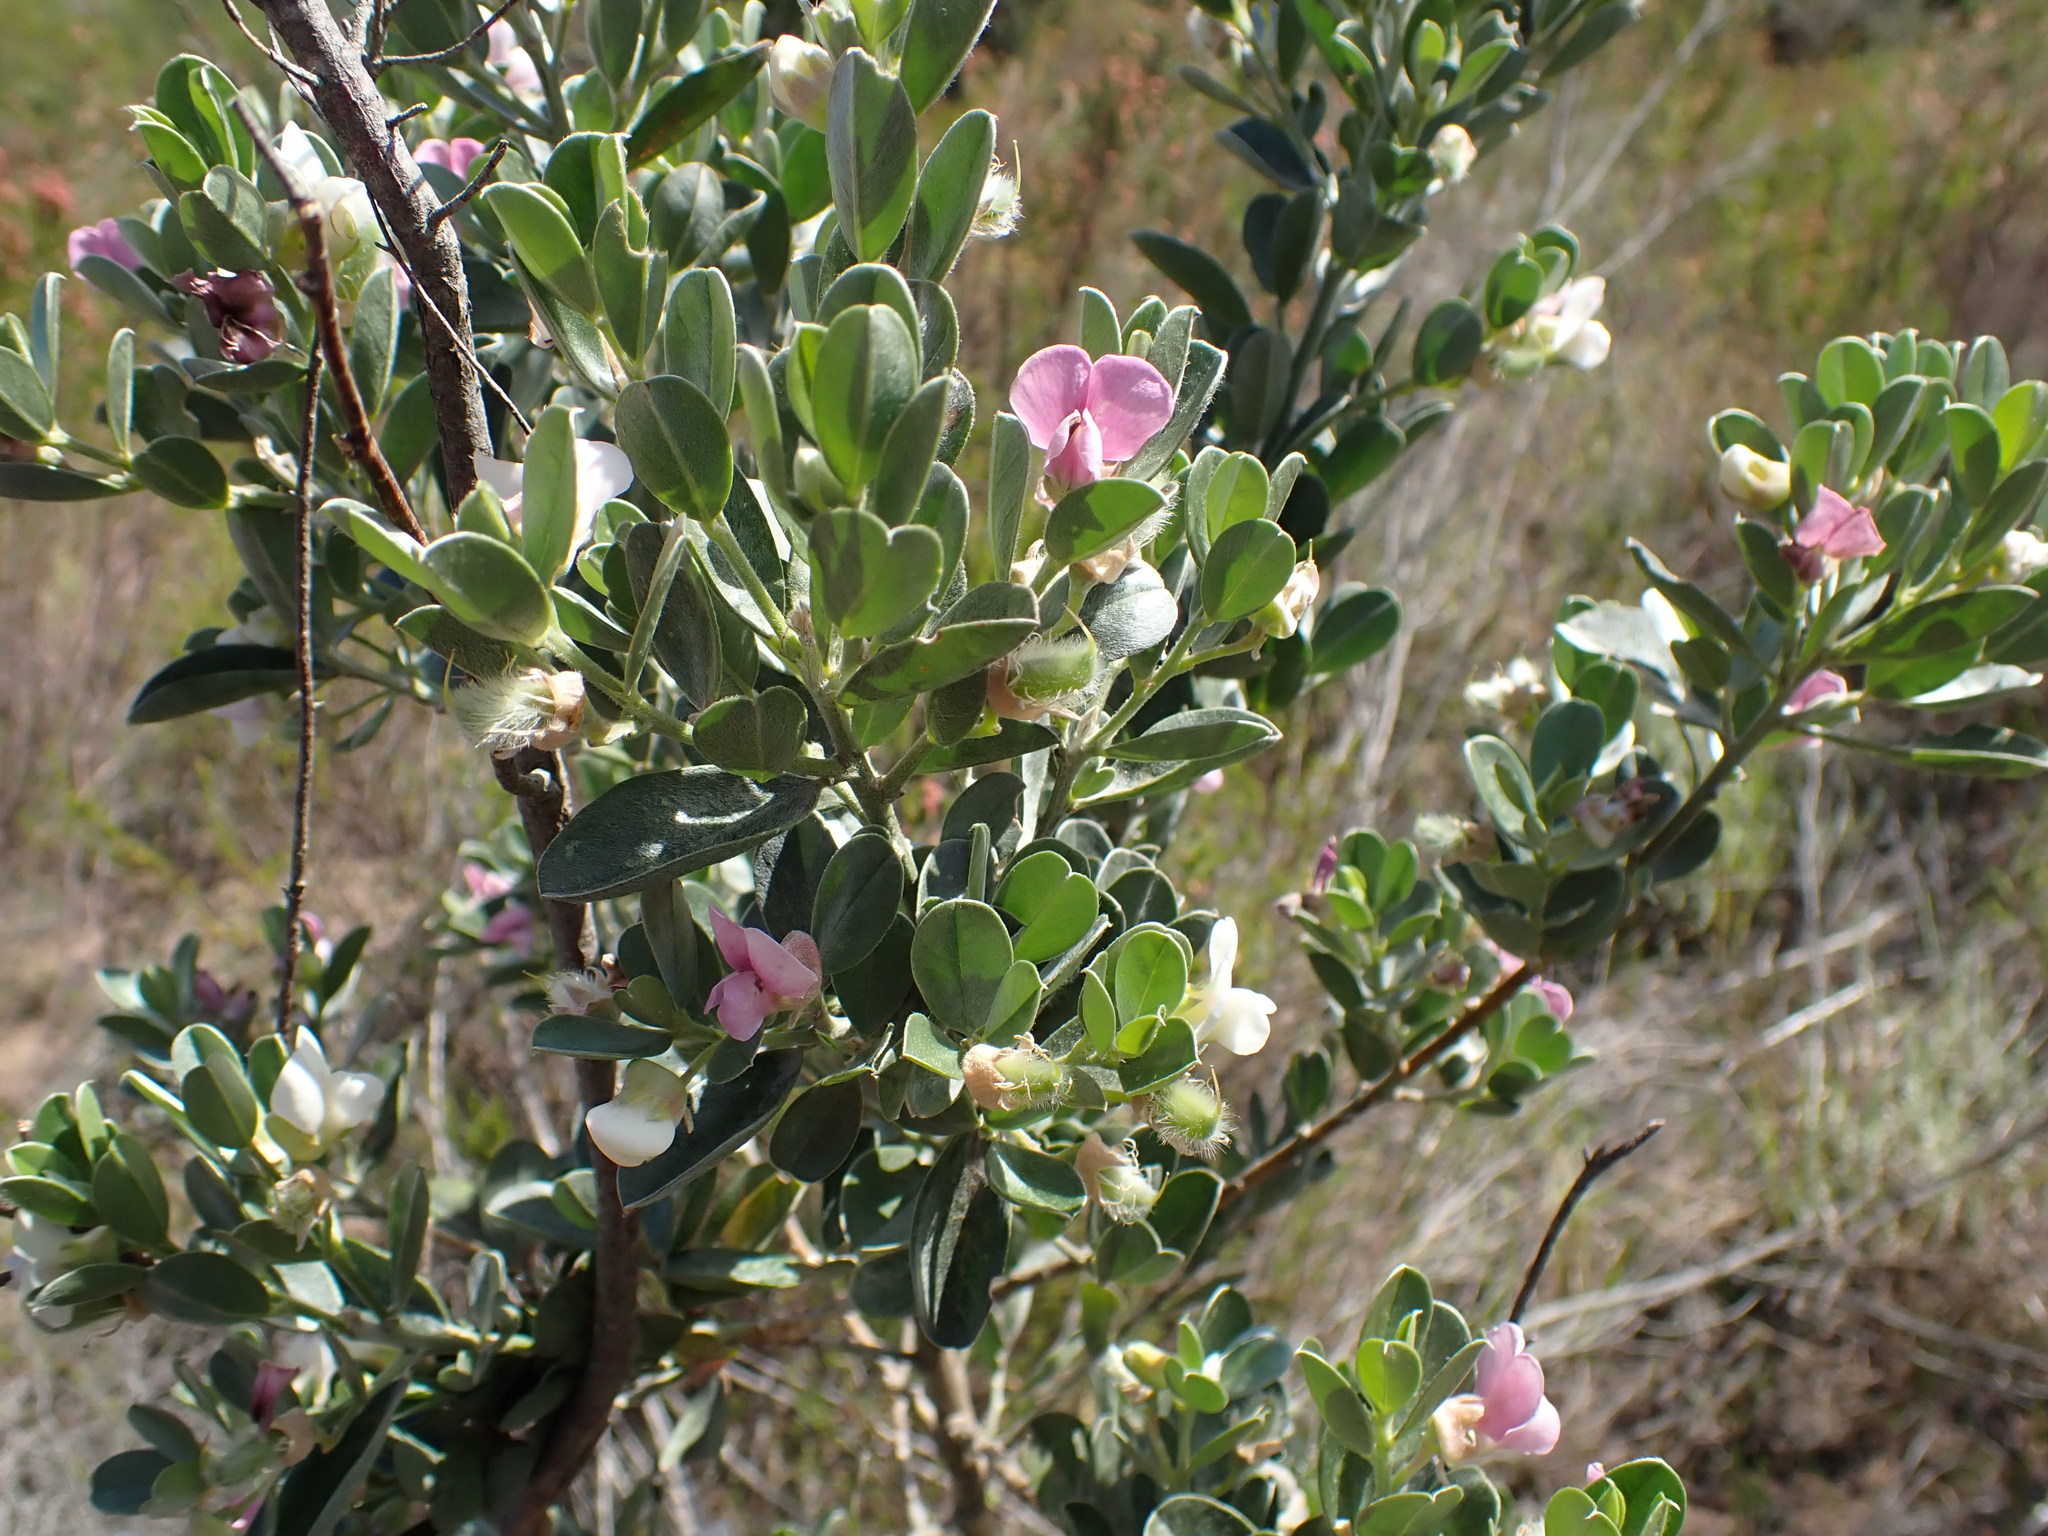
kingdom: Plantae
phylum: Tracheophyta
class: Magnoliopsida
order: Fabales
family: Fabaceae
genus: Podalyria
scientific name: Podalyria myrtillifolia
